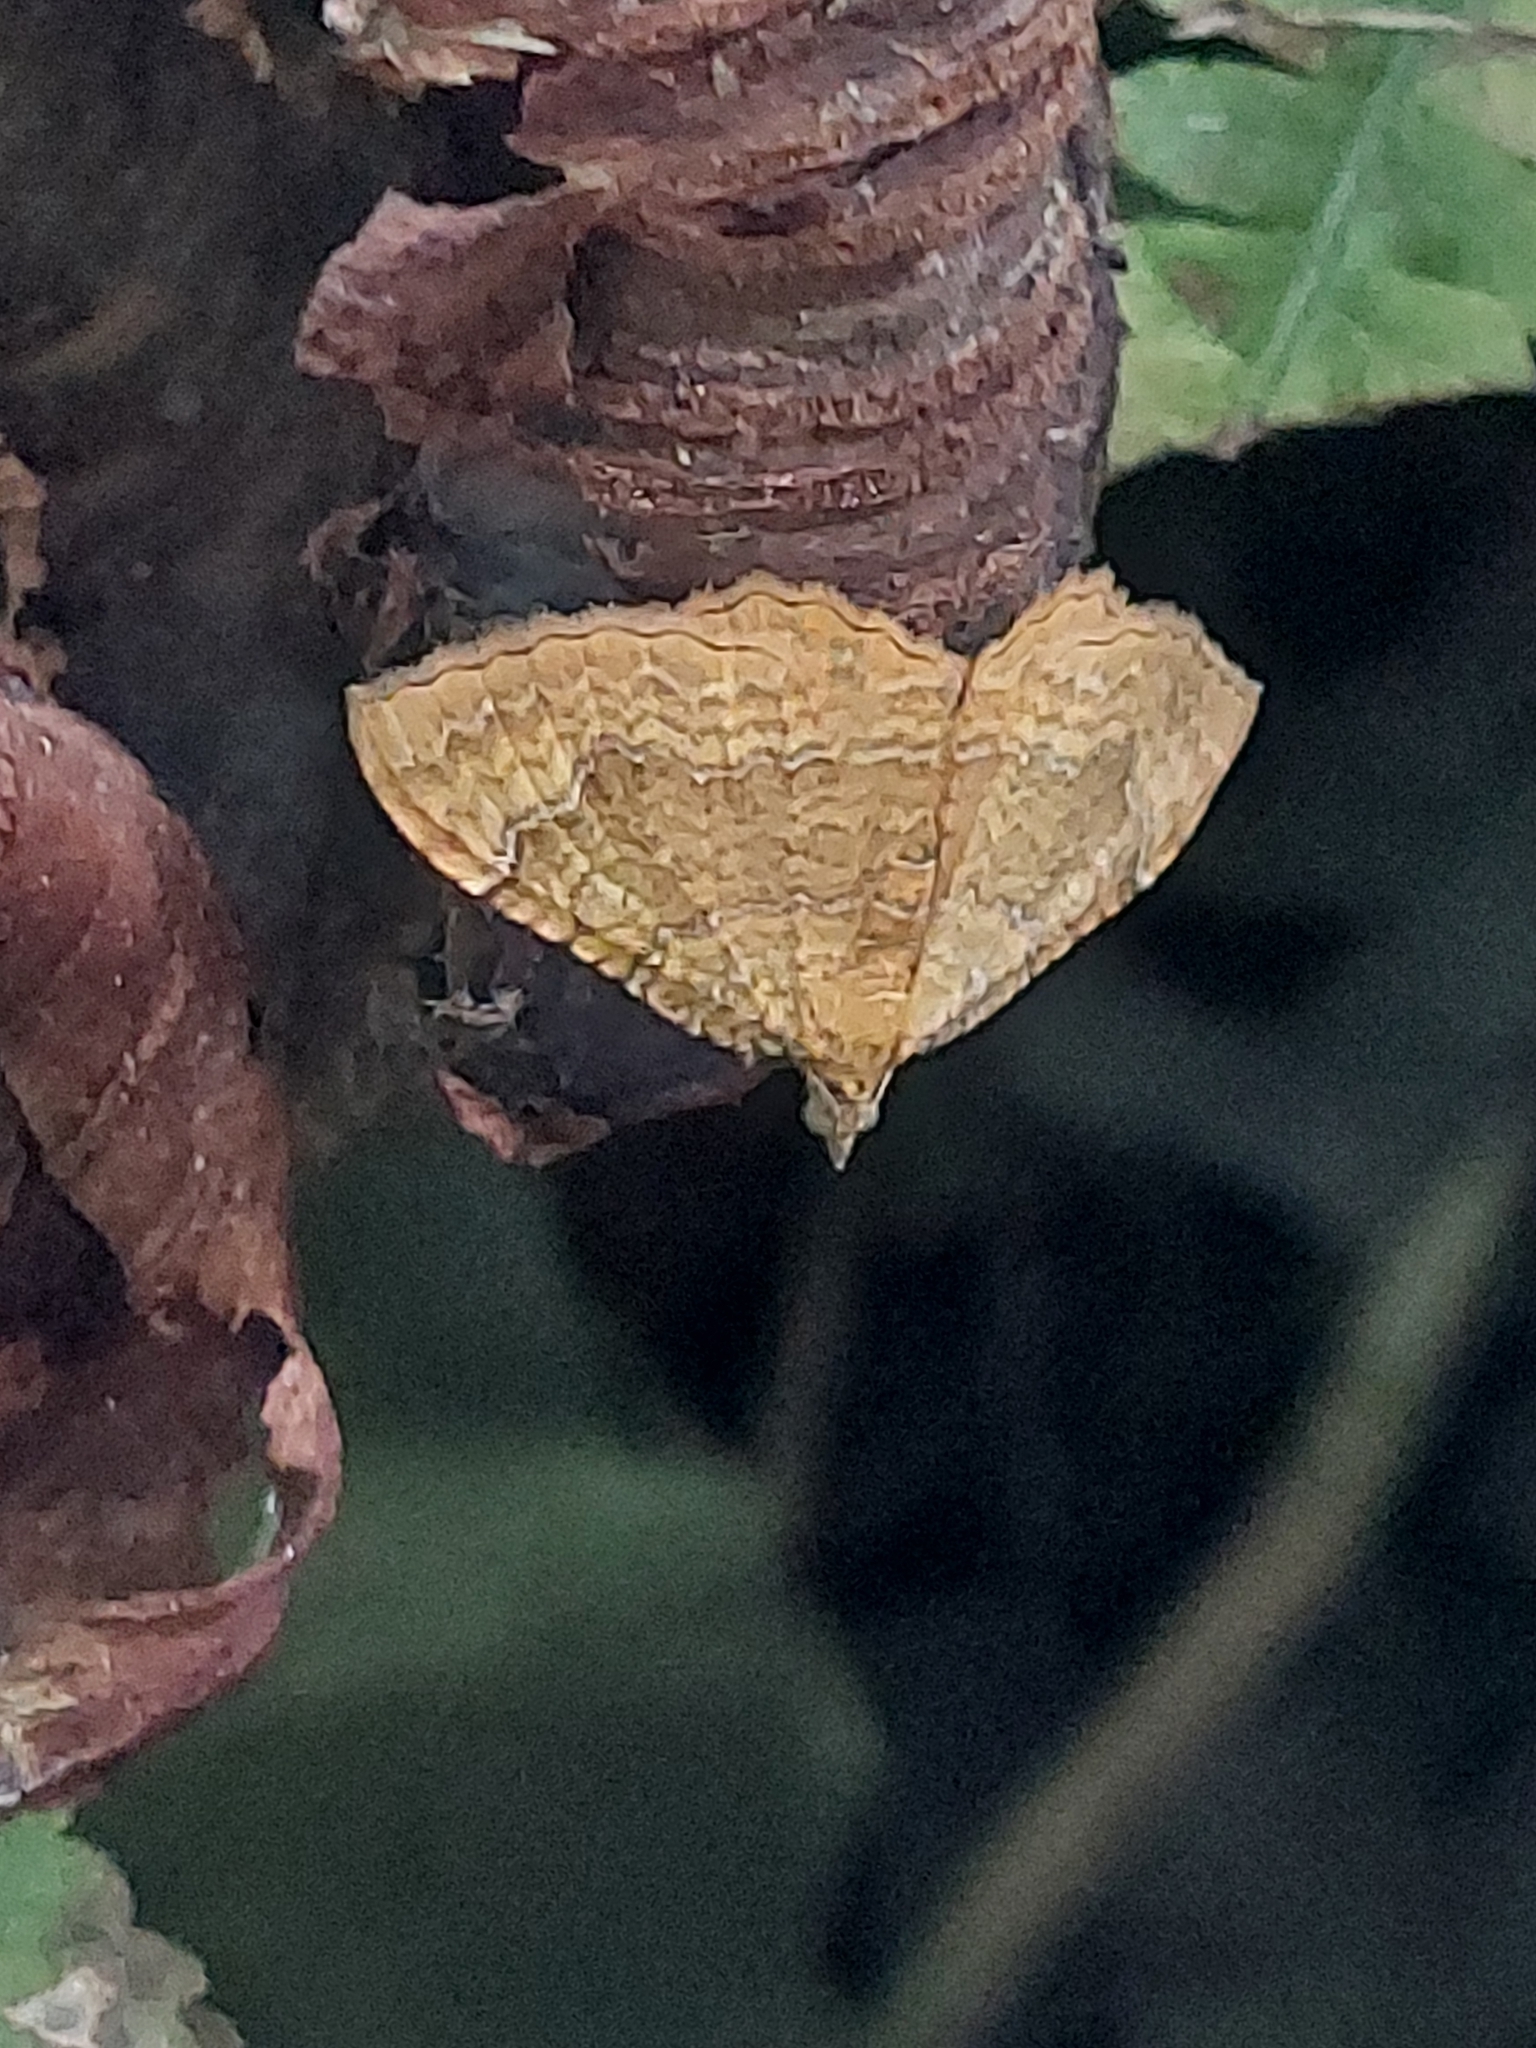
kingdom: Animalia
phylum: Arthropoda
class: Insecta
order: Lepidoptera
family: Geometridae
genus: Camptogramma
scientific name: Camptogramma bilineata
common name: Yellow shell
